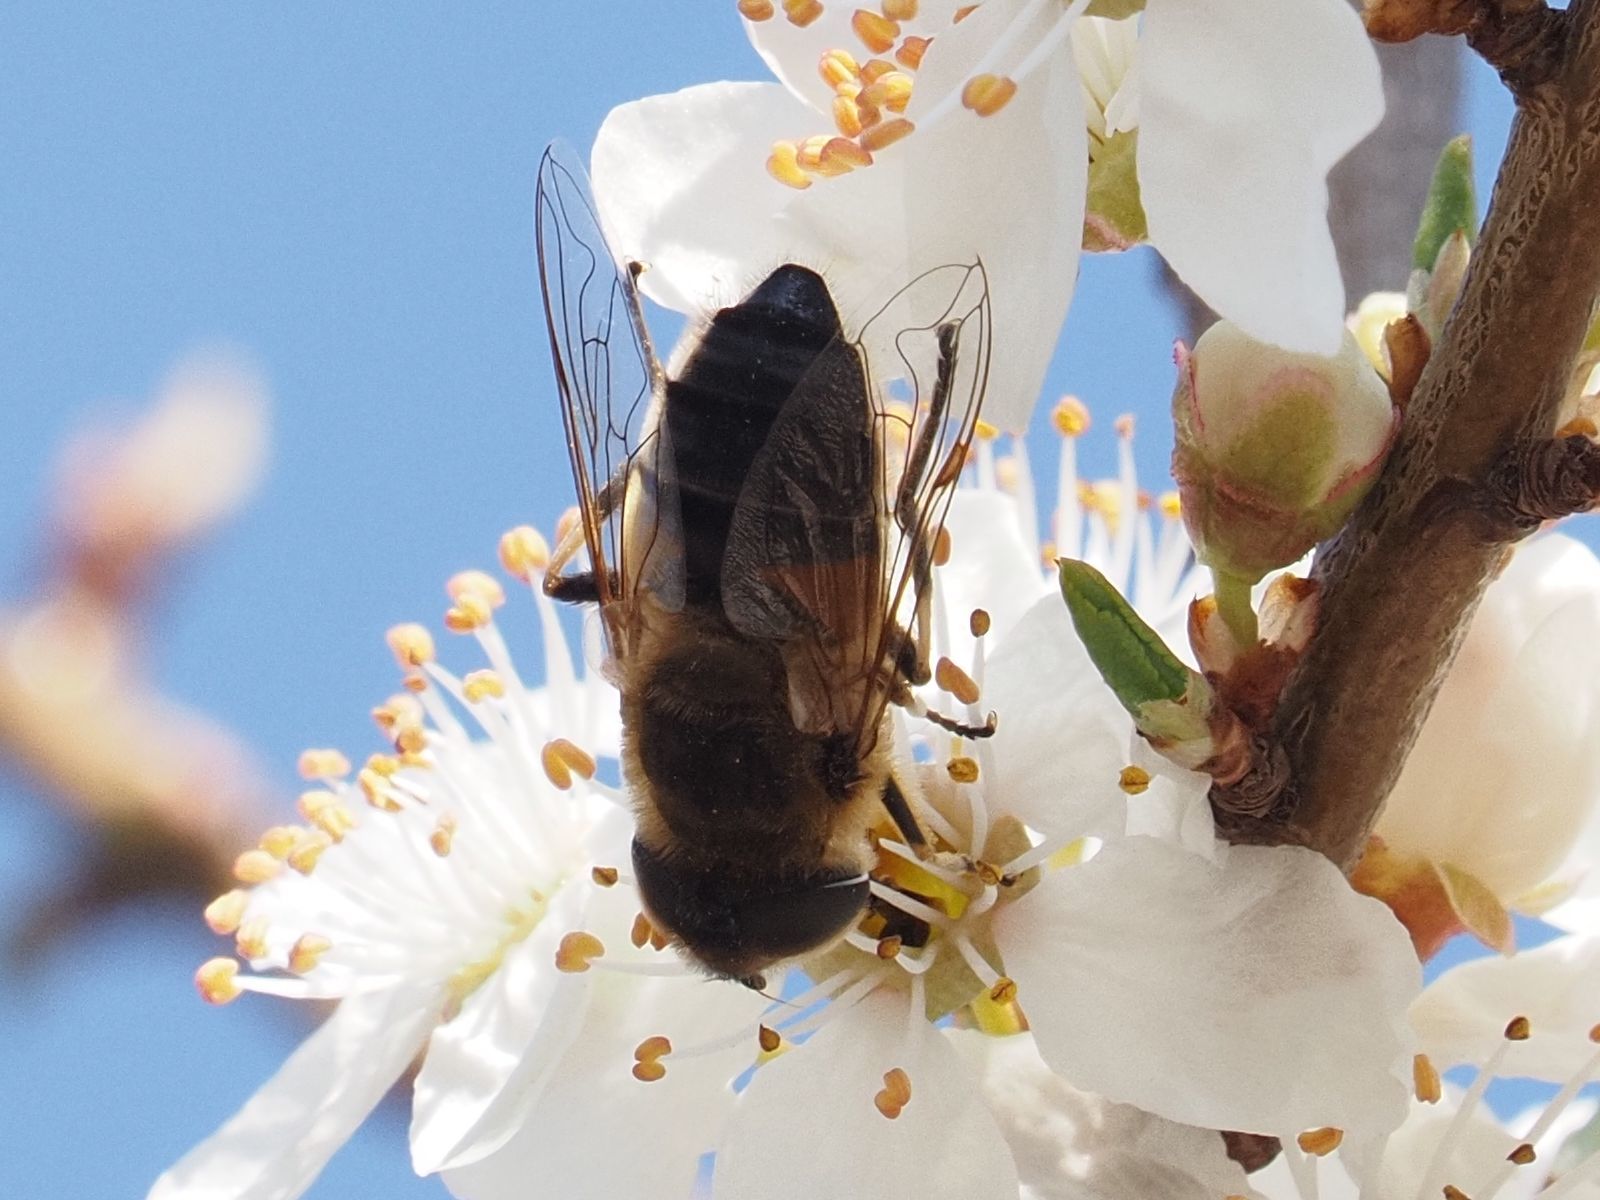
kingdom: Animalia
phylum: Arthropoda
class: Insecta
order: Diptera
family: Syrphidae
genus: Eristalis
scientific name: Eristalis pertinax
